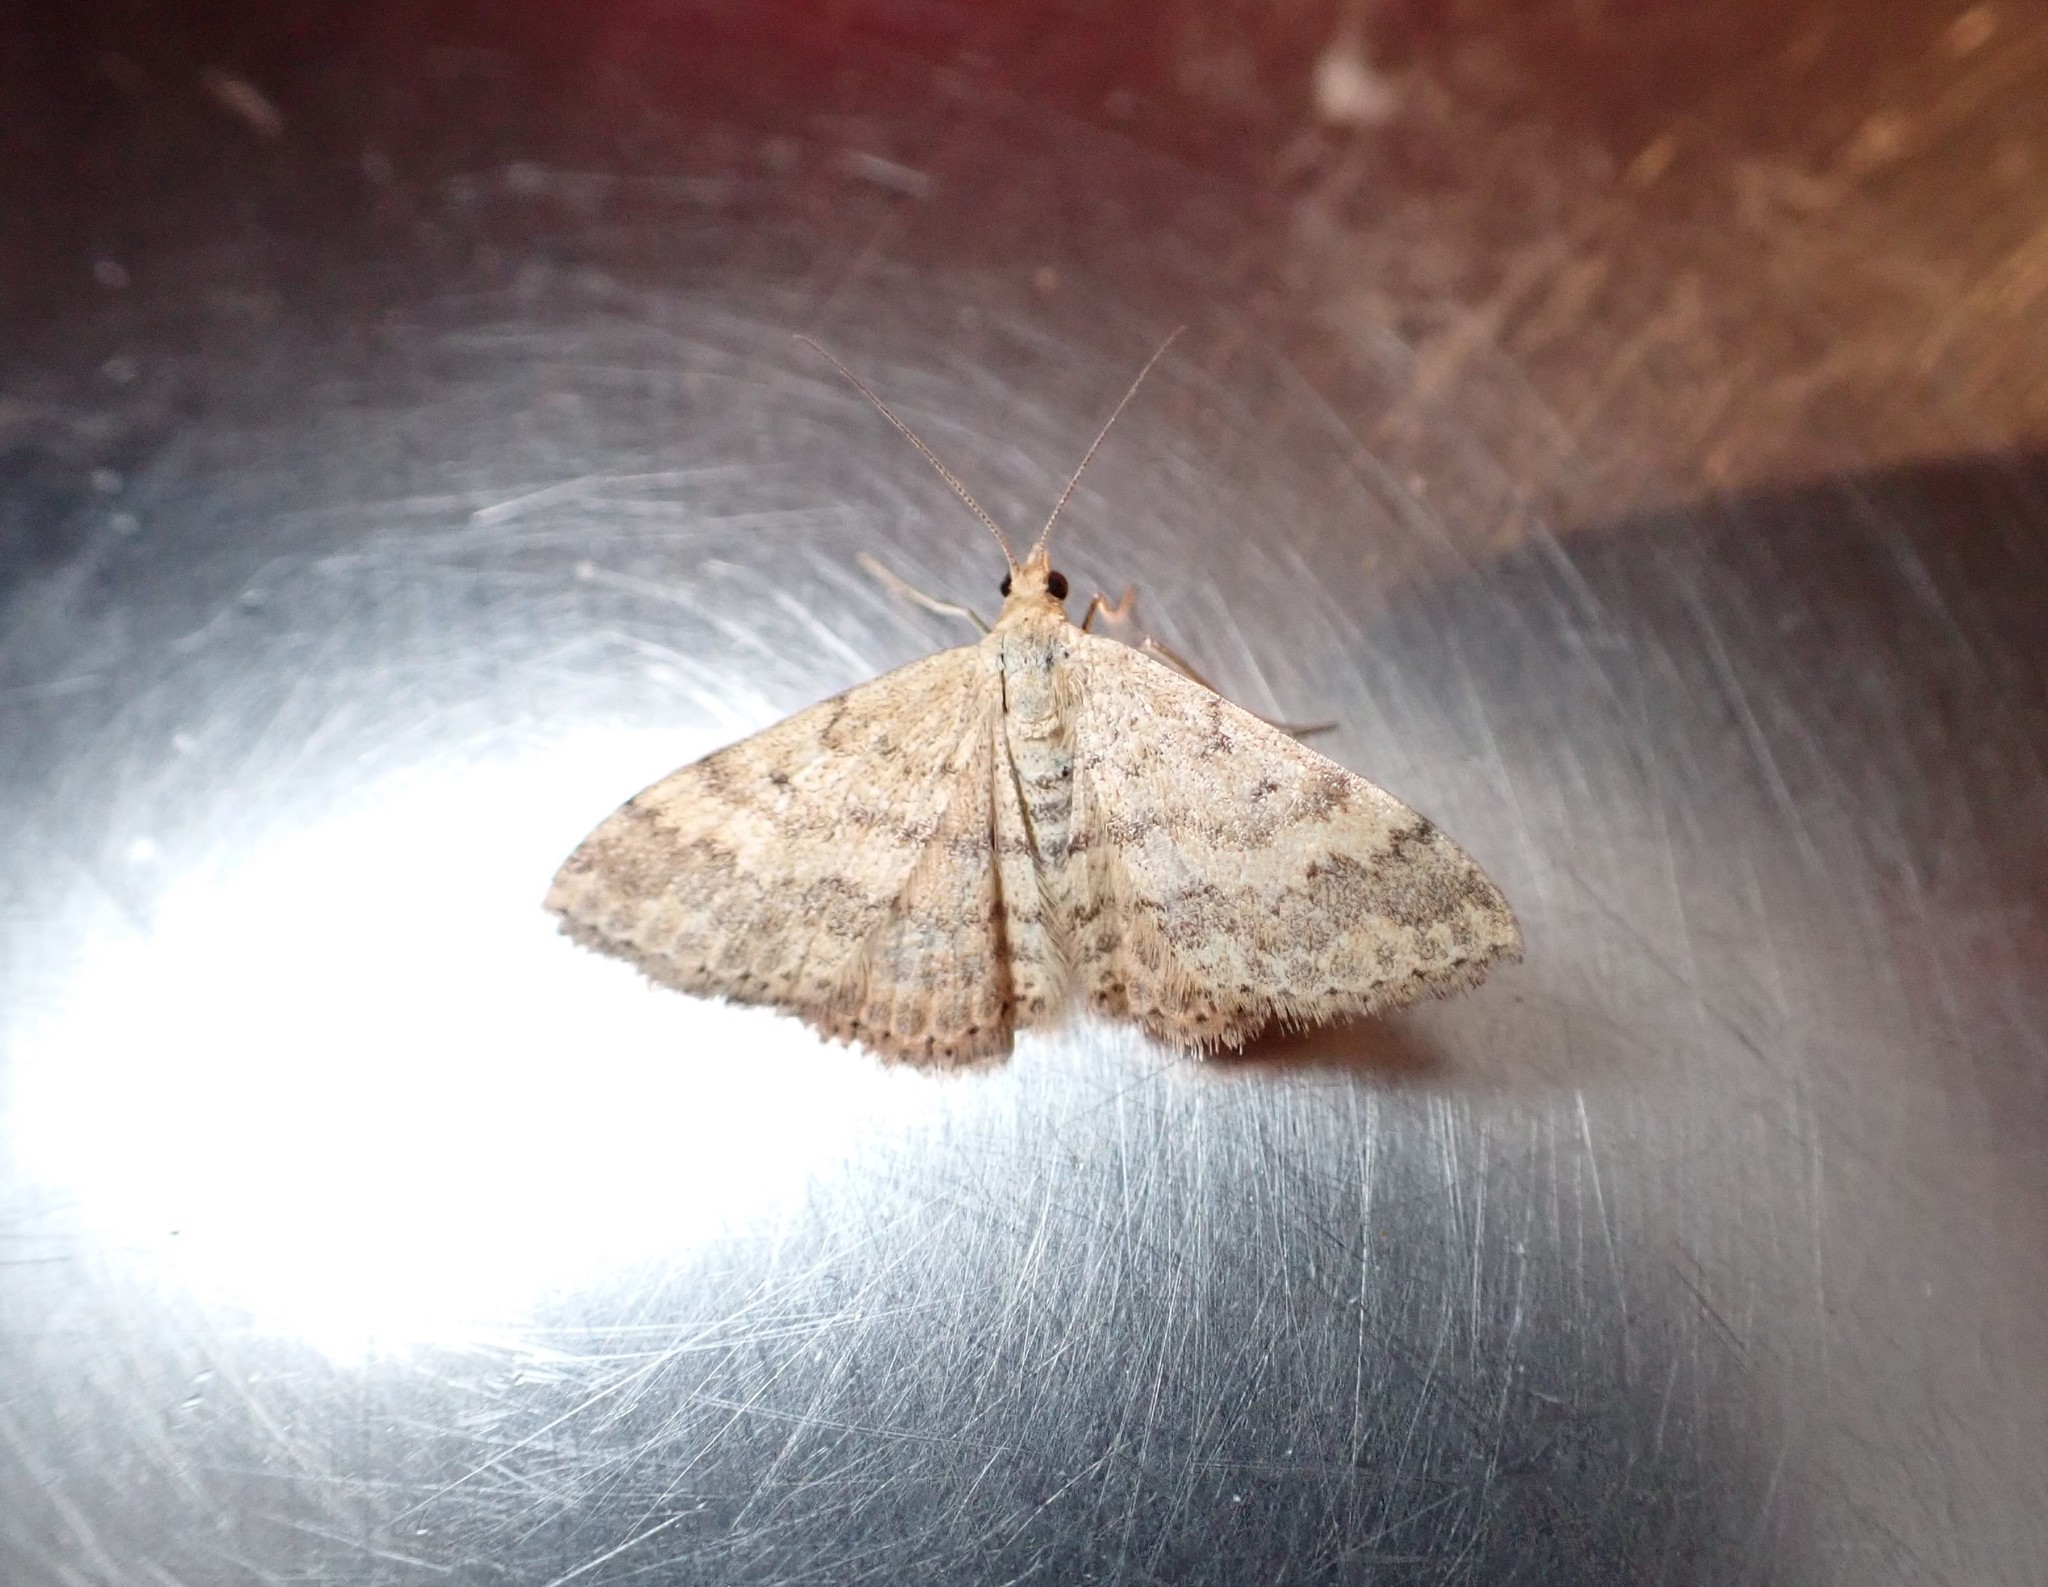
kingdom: Animalia
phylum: Arthropoda
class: Insecta
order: Lepidoptera
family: Geometridae
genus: Scopula
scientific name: Scopula rubraria
